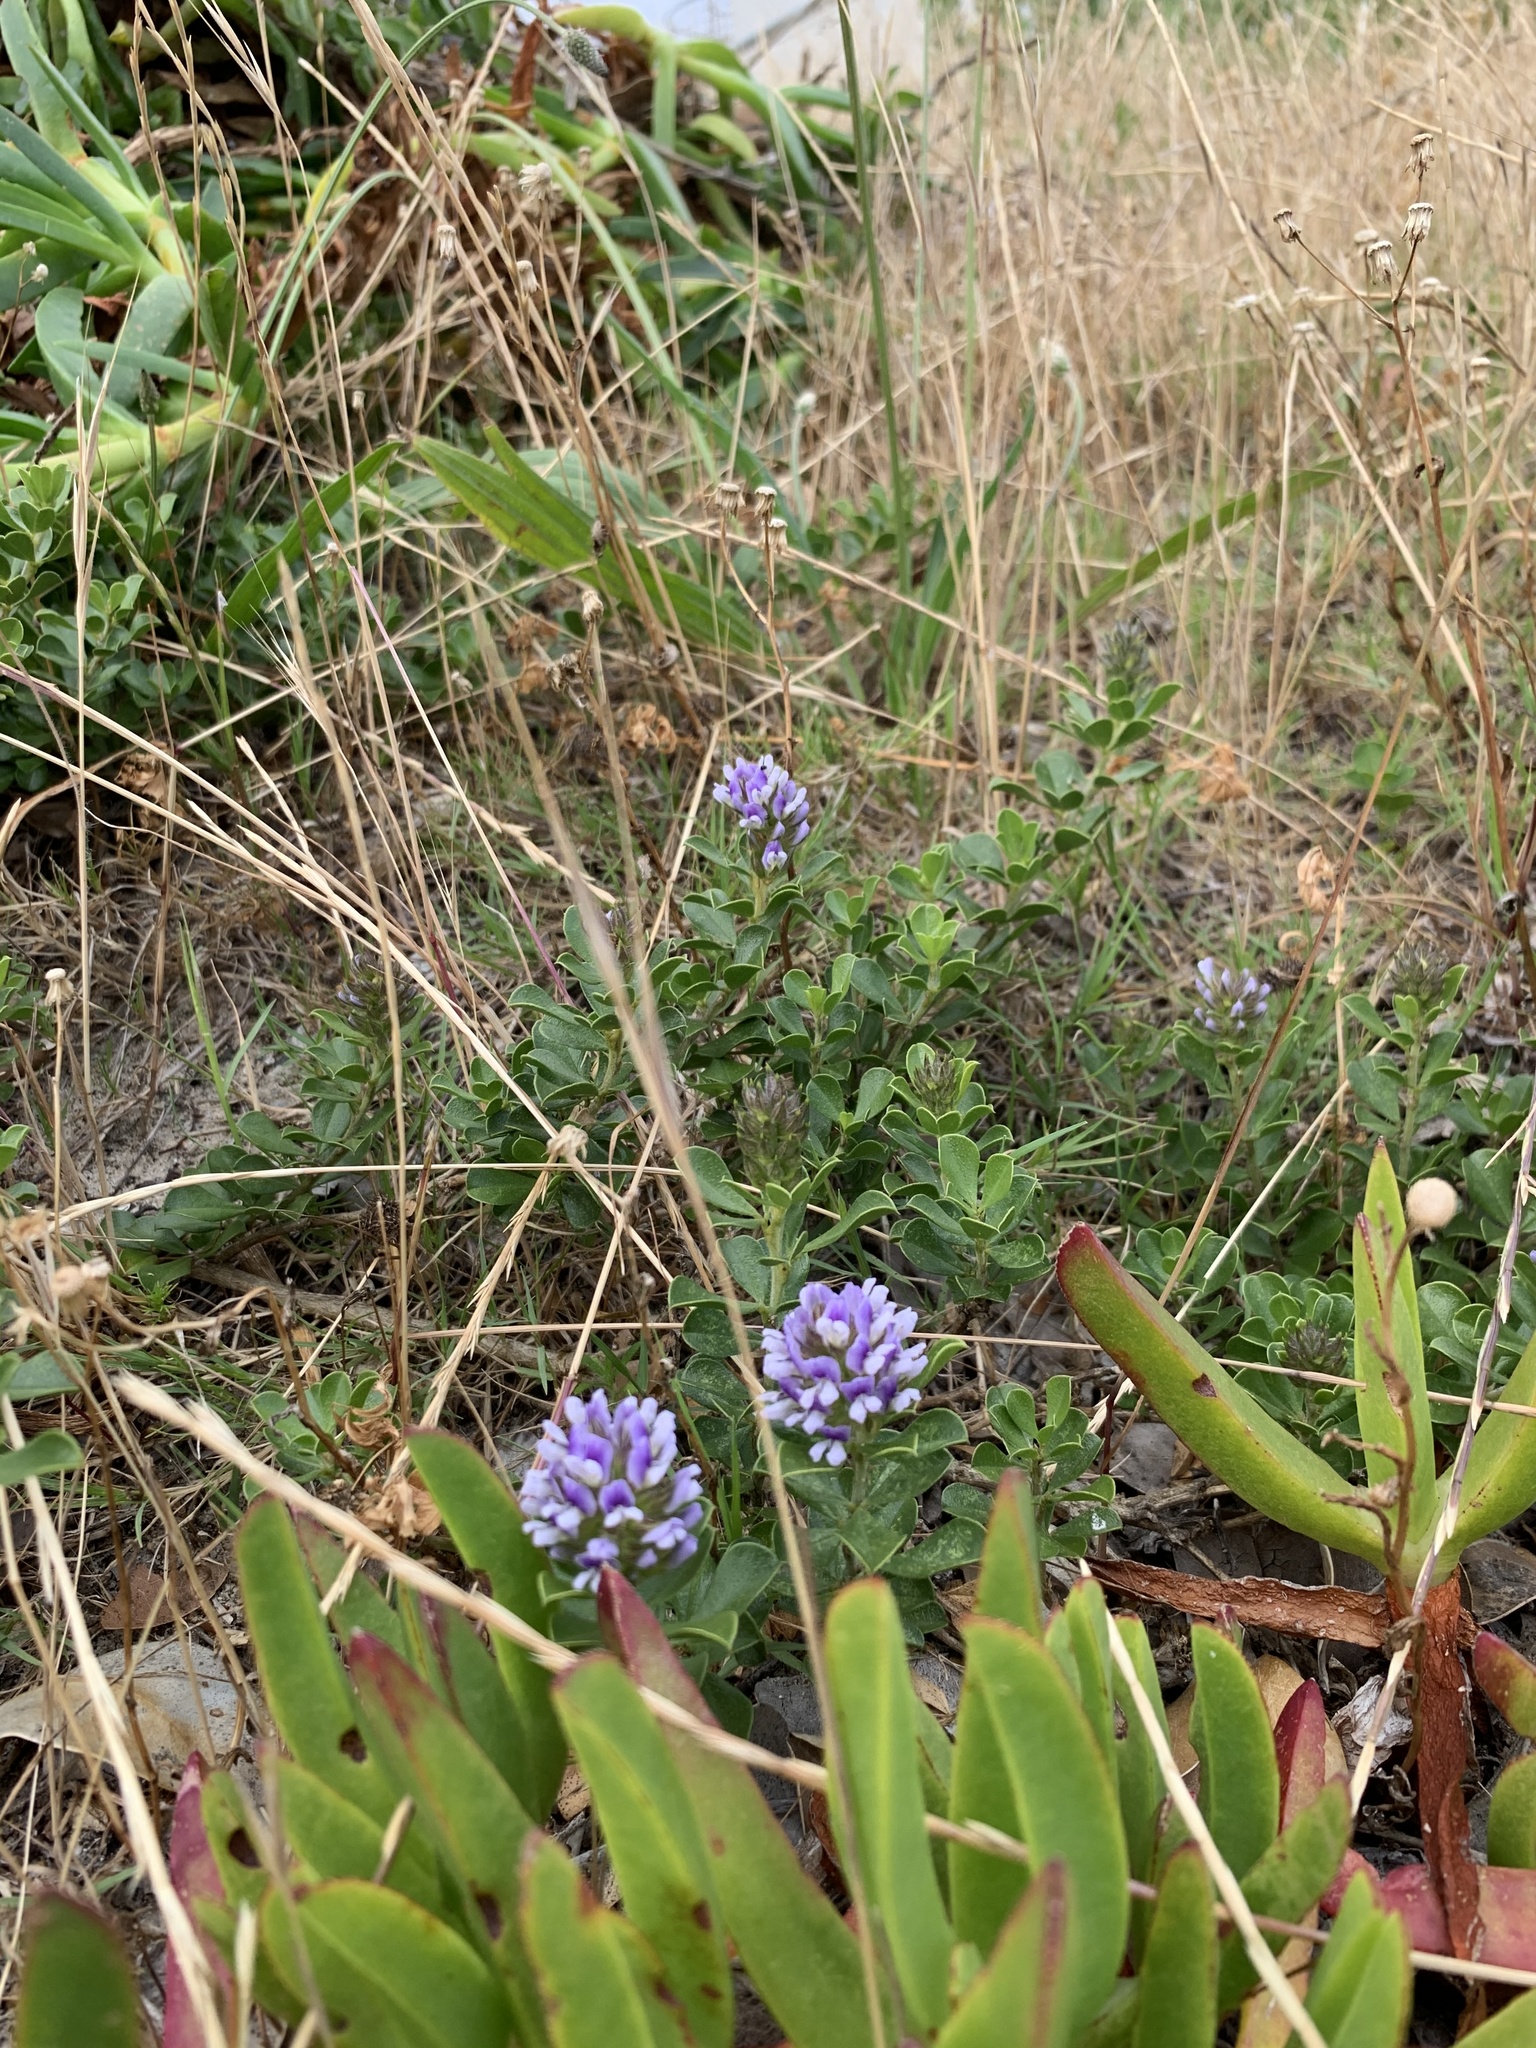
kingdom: Plantae
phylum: Tracheophyta
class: Magnoliopsida
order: Fabales
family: Fabaceae
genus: Psoralea
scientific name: Psoralea bracteolata
